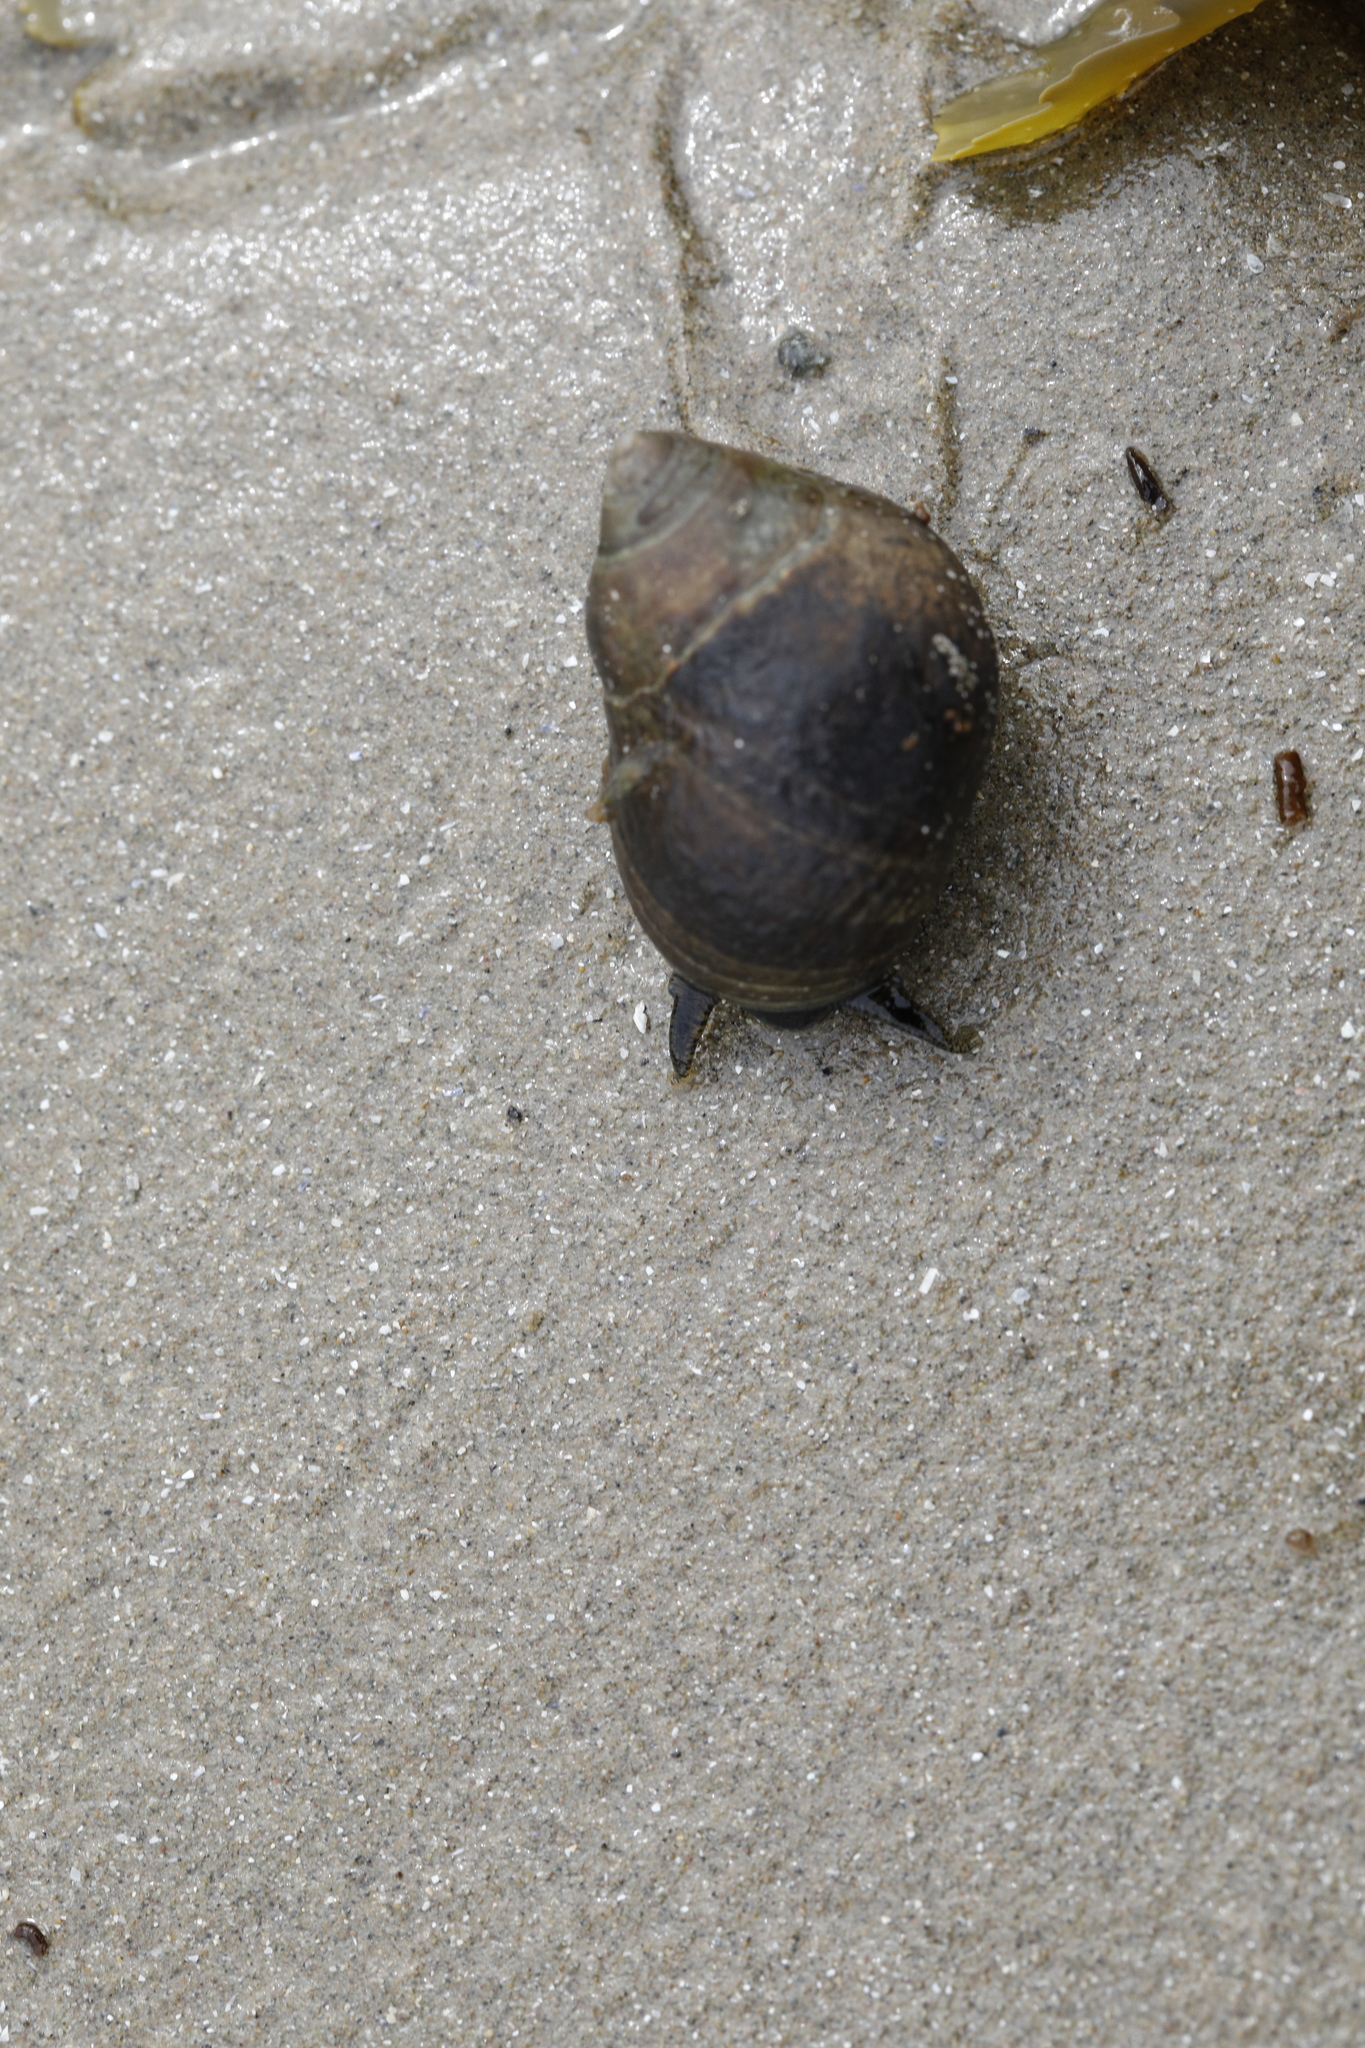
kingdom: Animalia
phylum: Mollusca
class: Gastropoda
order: Littorinimorpha
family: Littorinidae
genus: Littorina
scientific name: Littorina littorea
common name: Common periwinkle
